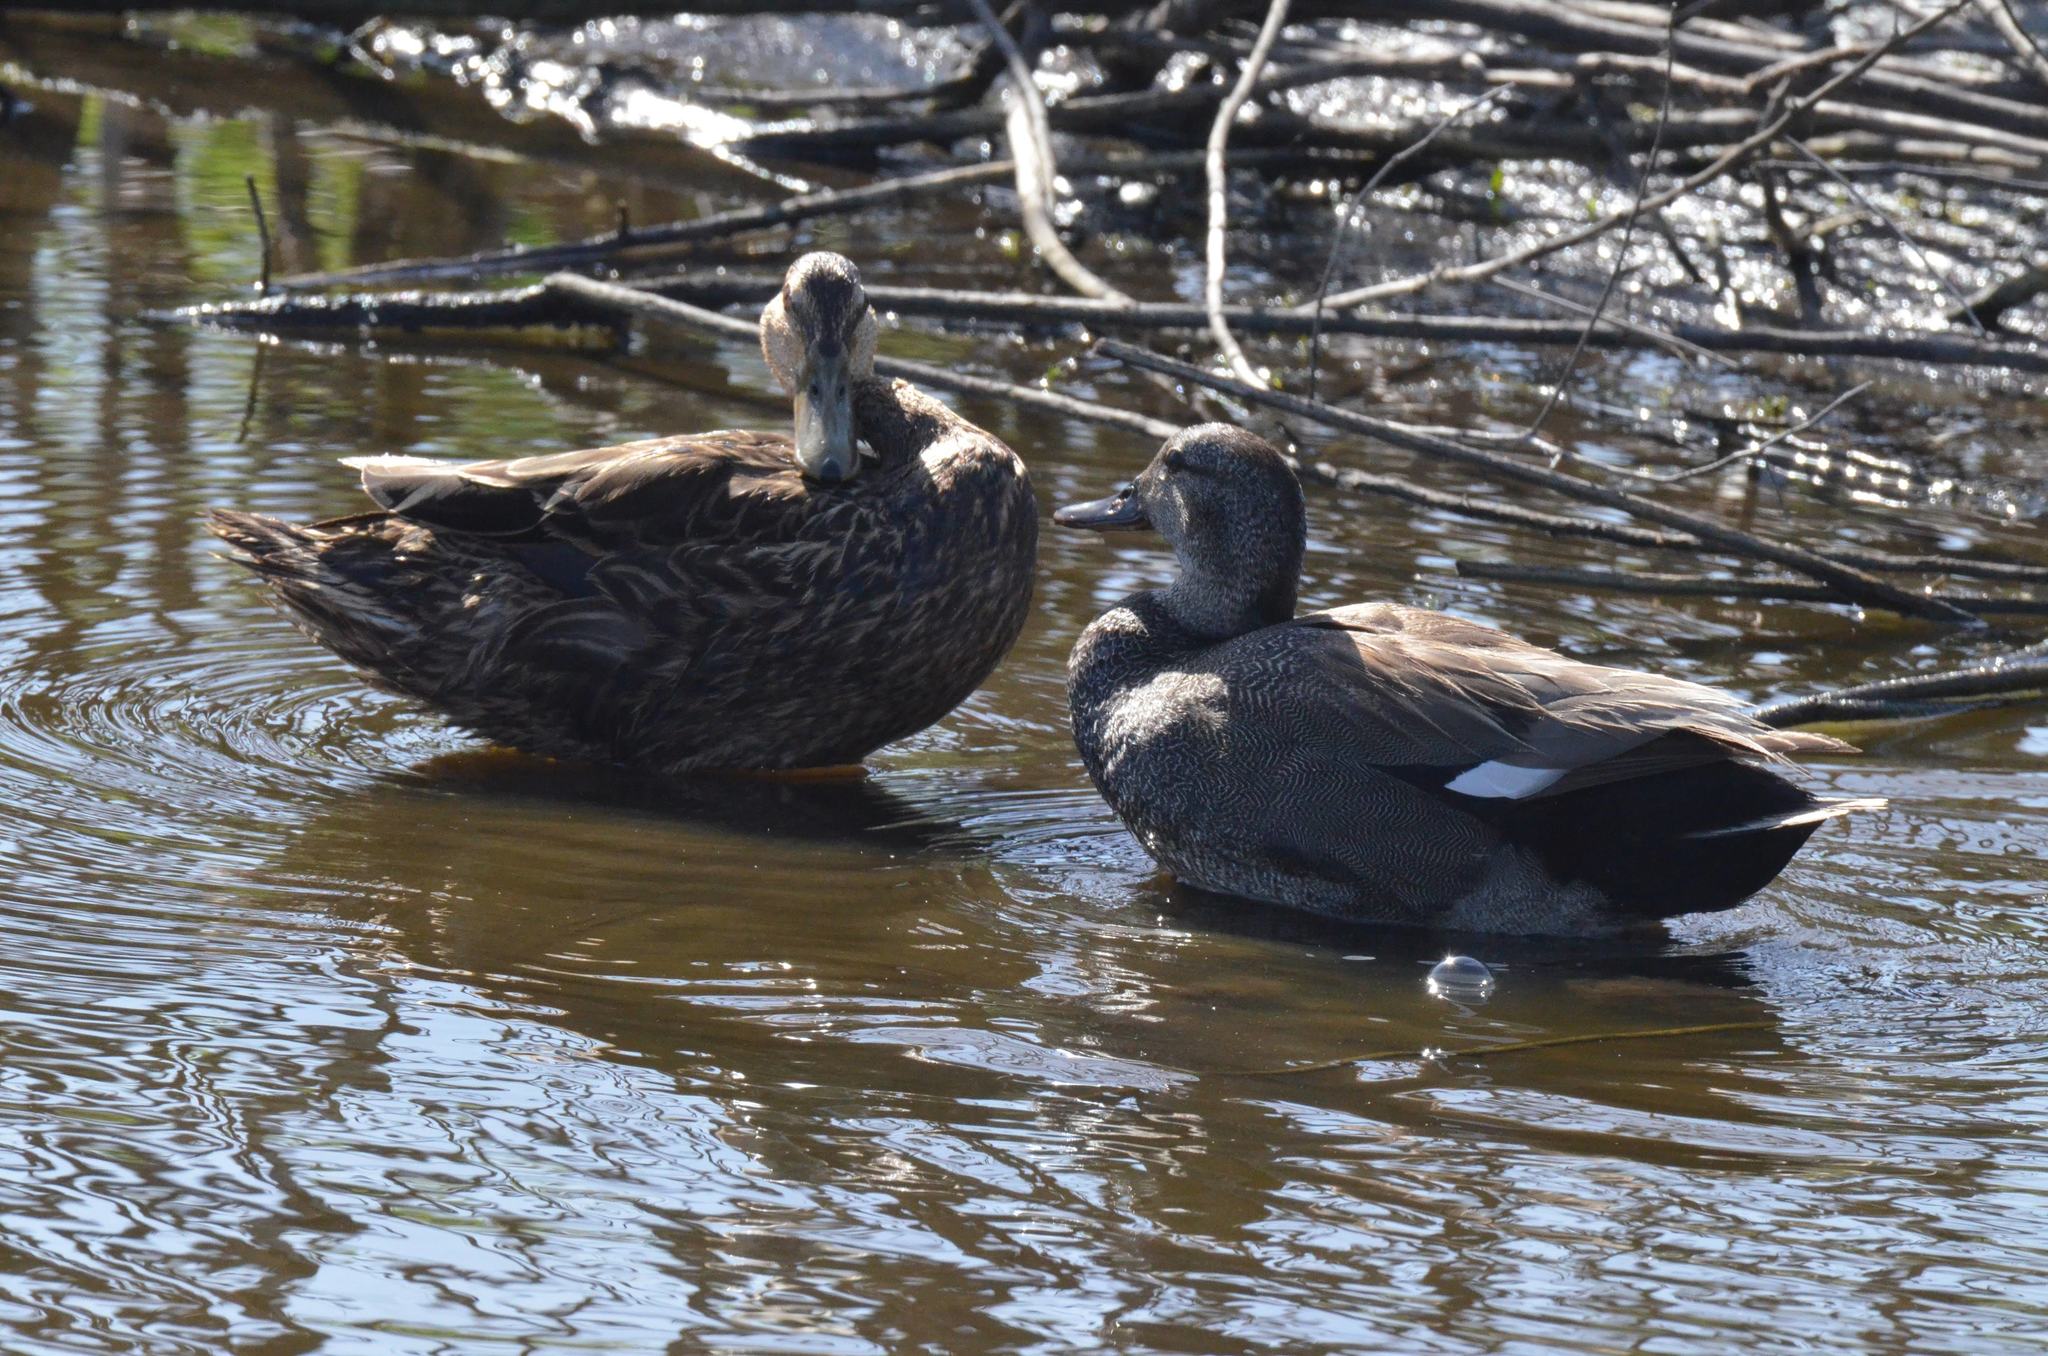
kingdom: Animalia
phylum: Chordata
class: Aves
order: Anseriformes
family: Anatidae
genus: Mareca
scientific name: Mareca strepera
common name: Gadwall
